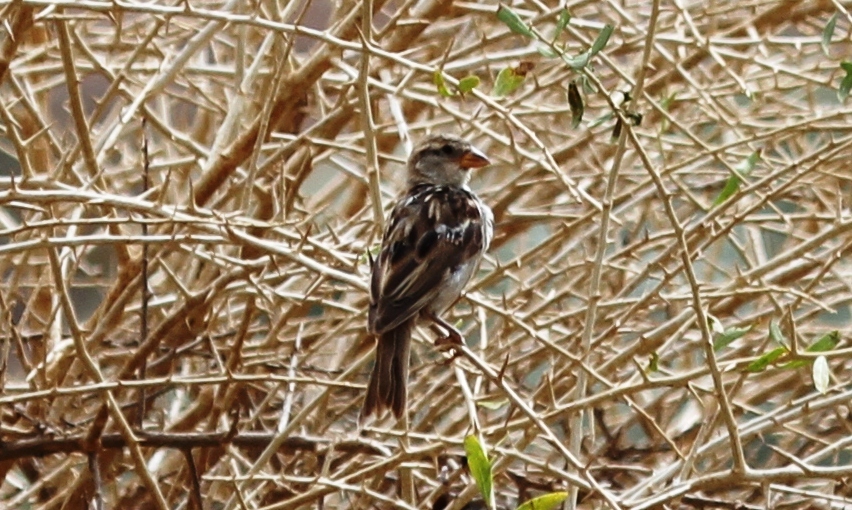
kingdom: Animalia
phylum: Chordata
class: Aves
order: Passeriformes
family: Passeridae
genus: Petronia
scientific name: Petronia petronia
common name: Rock sparrow
